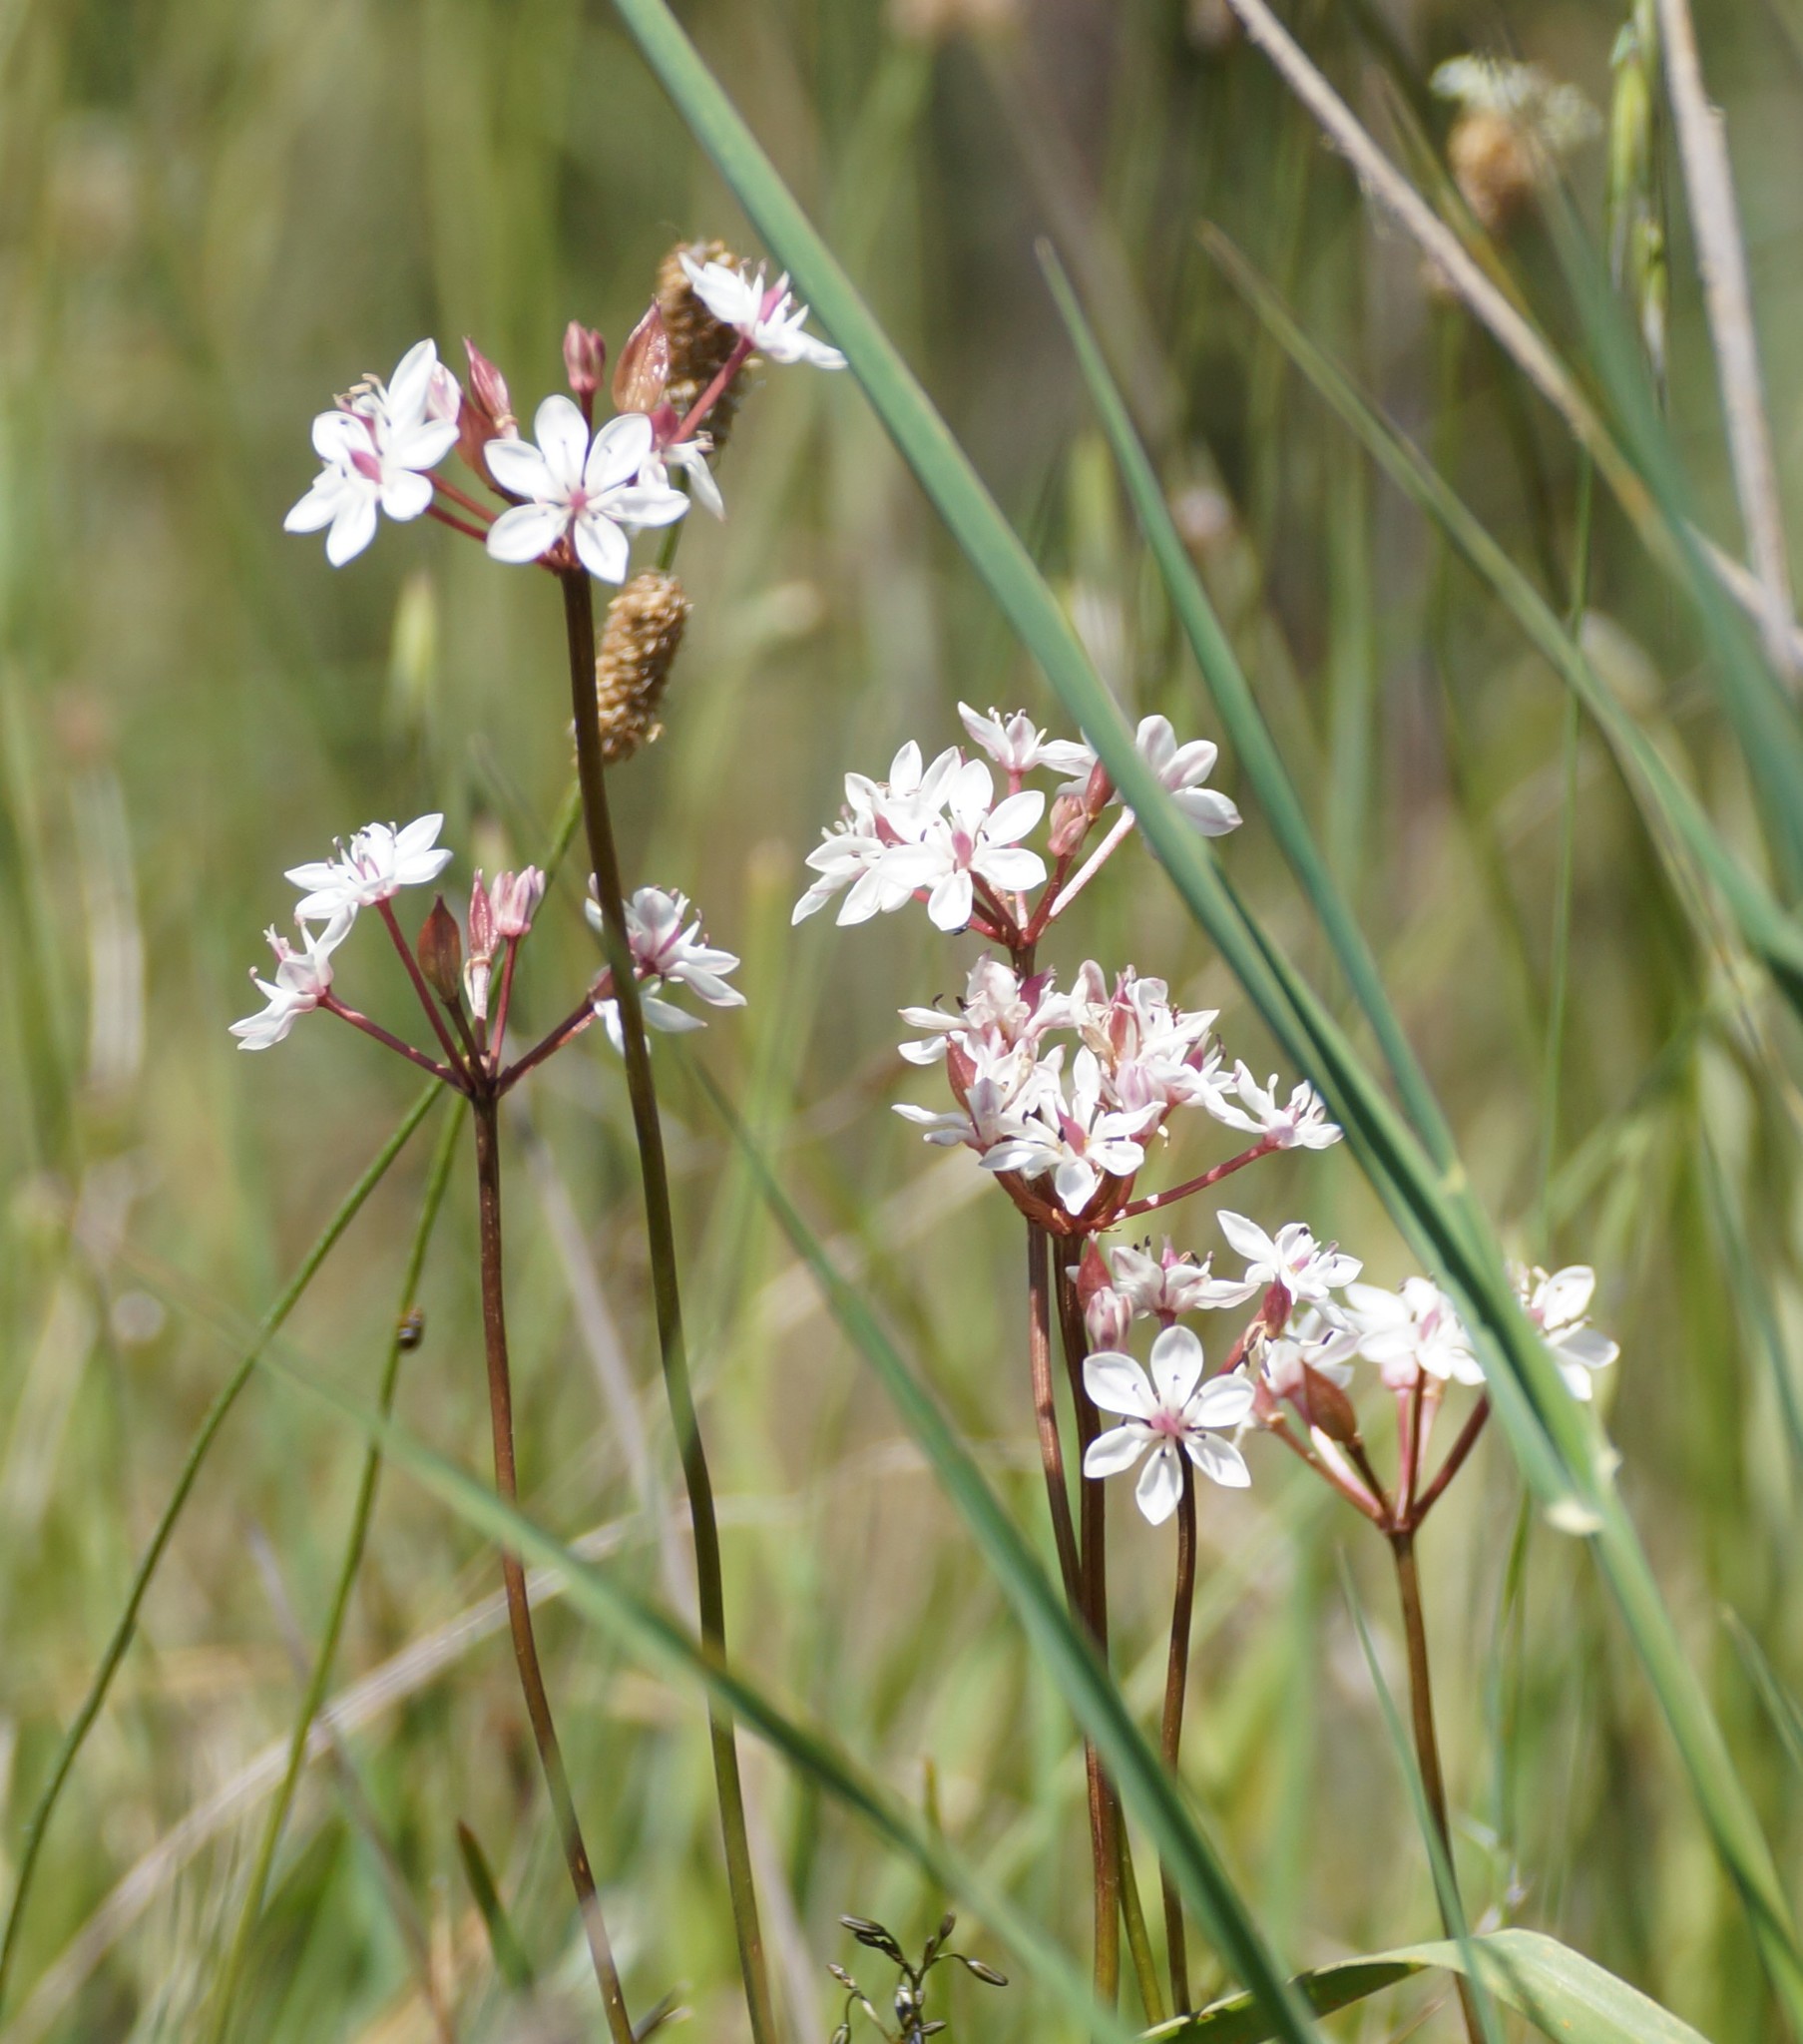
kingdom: Plantae
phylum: Tracheophyta
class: Liliopsida
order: Liliales
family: Colchicaceae
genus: Burchardia
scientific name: Burchardia umbellata
